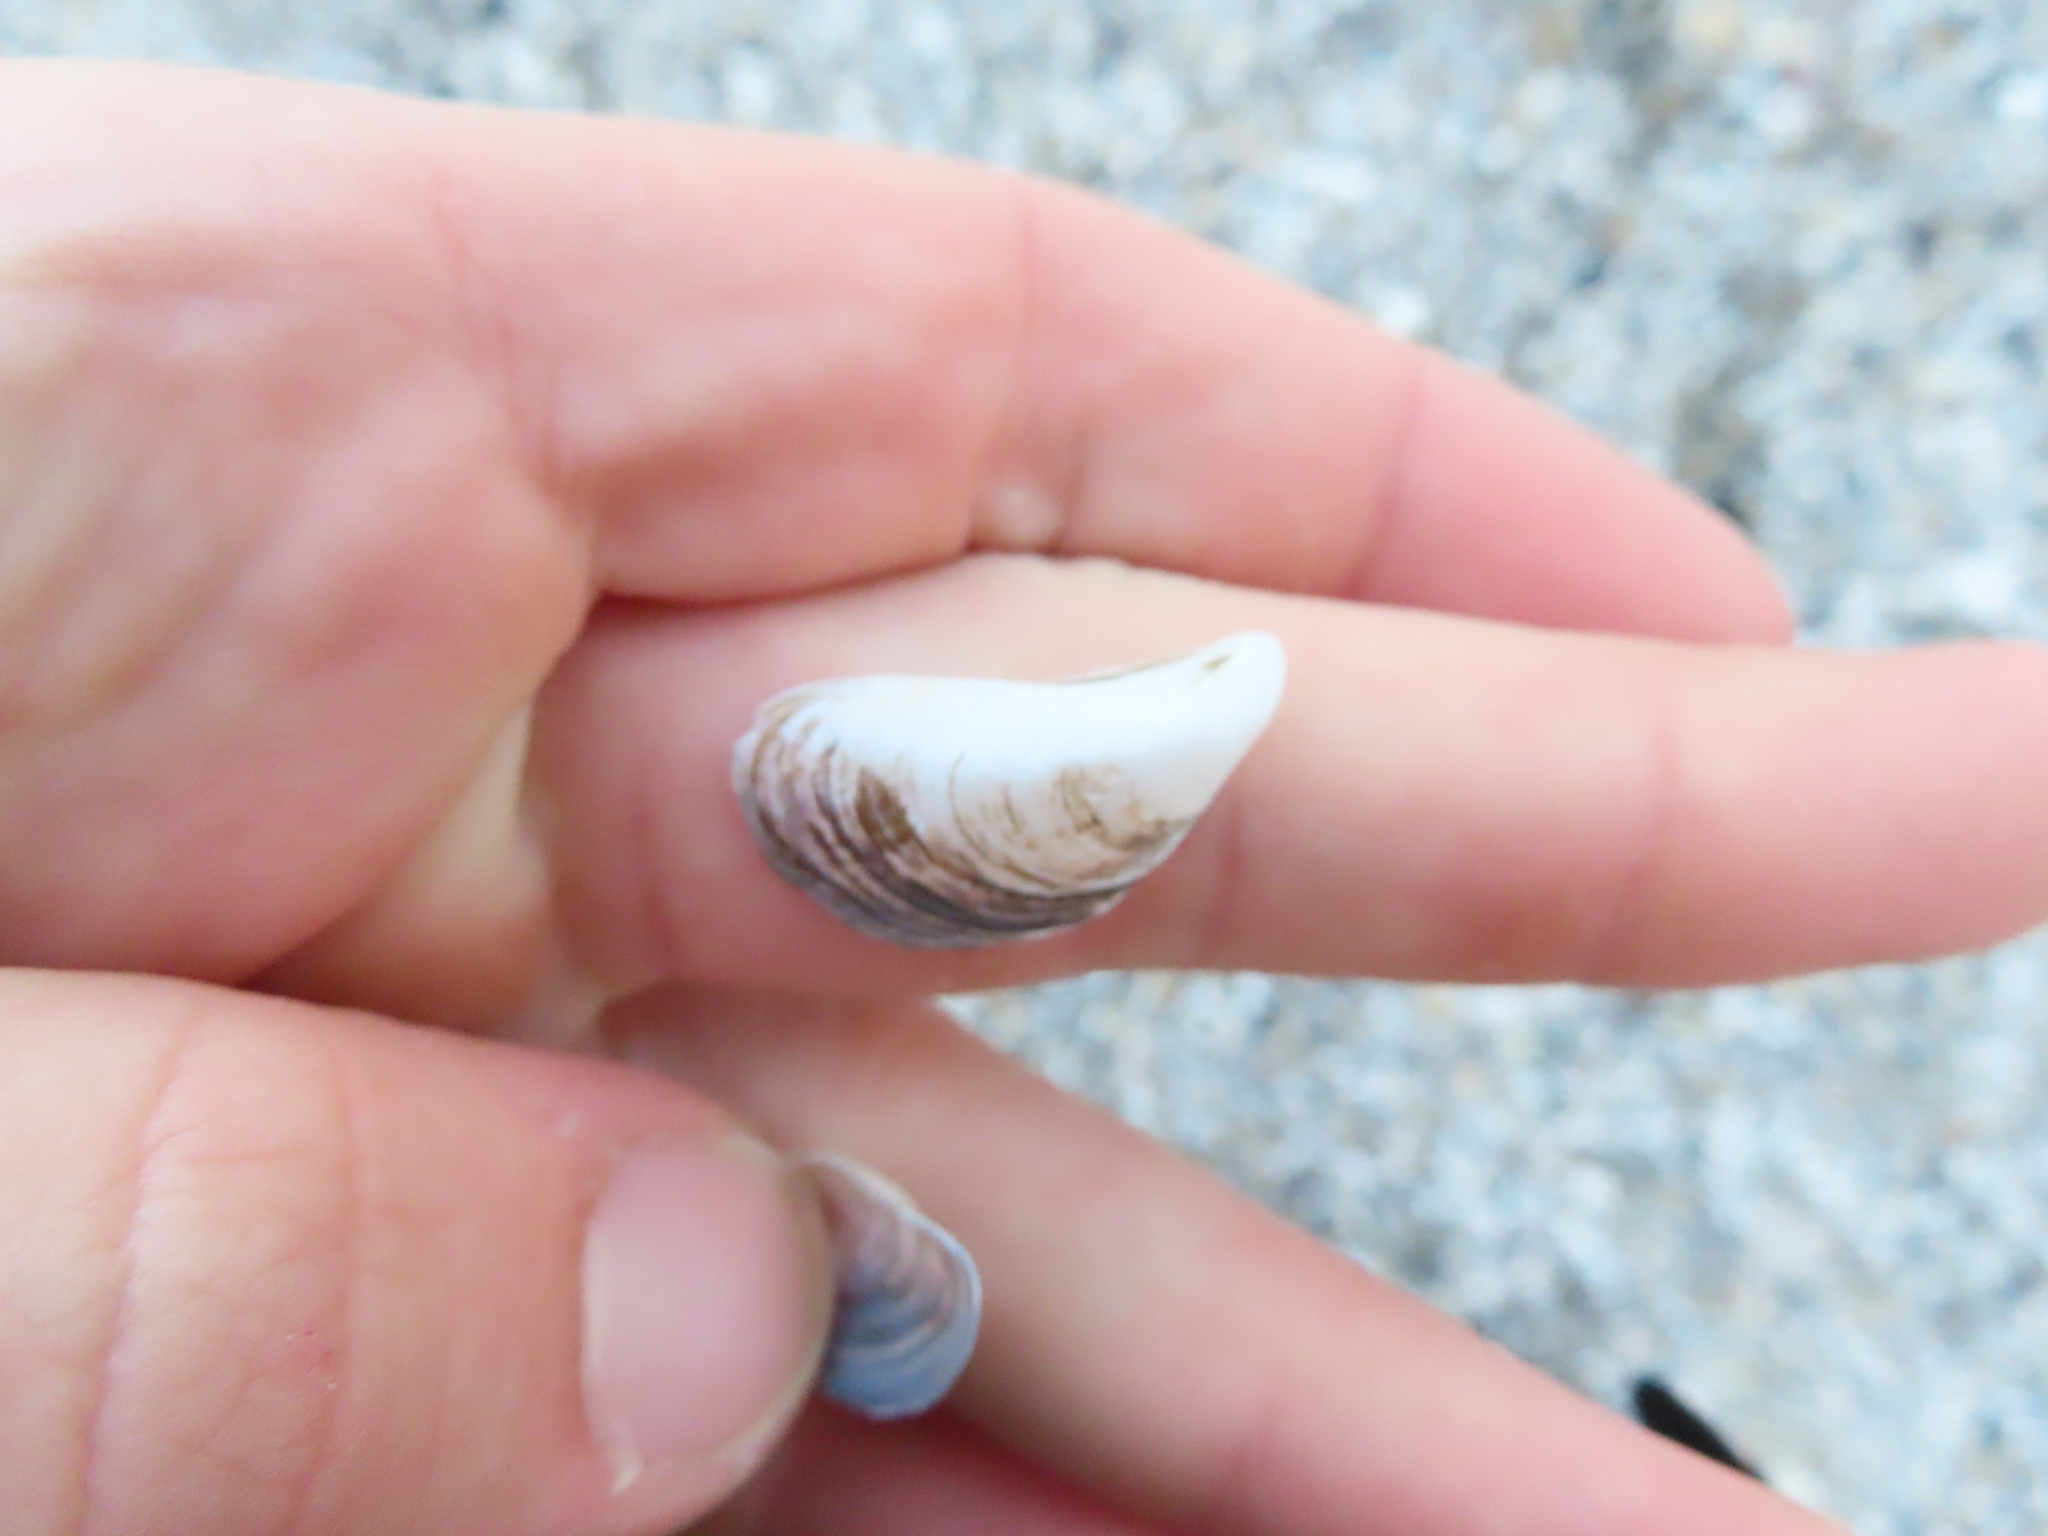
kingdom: Animalia
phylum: Mollusca
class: Bivalvia
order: Myida
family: Dreissenidae
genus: Dreissena
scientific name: Dreissena bugensis
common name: Quagga mussel
